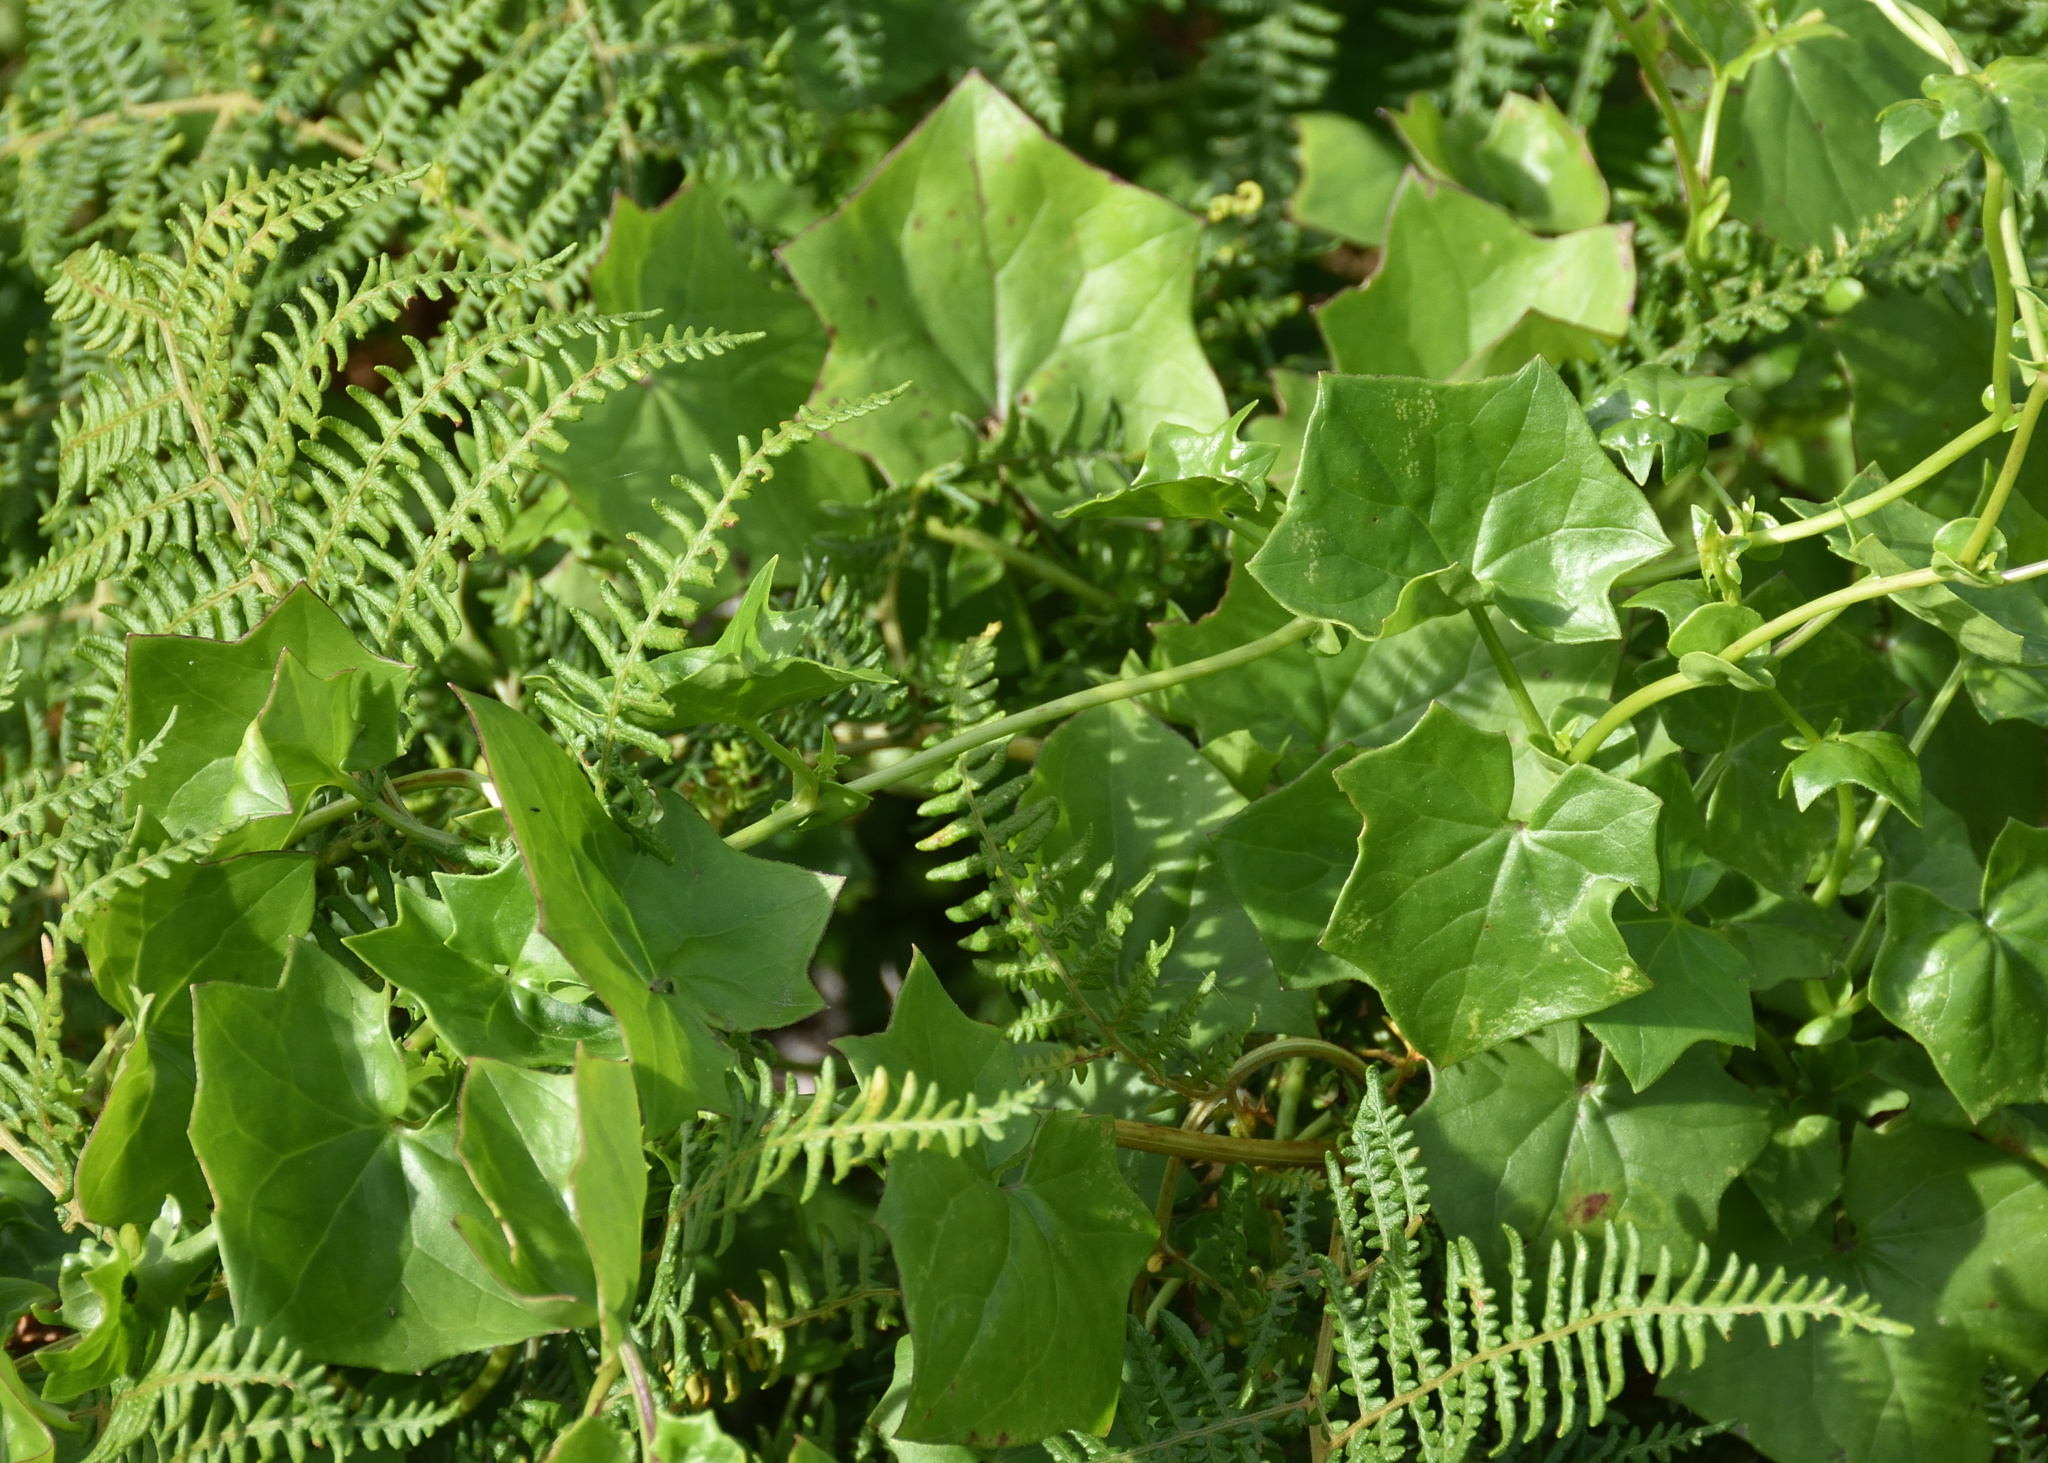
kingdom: Plantae
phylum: Tracheophyta
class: Magnoliopsida
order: Asterales
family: Asteraceae
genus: Delairea
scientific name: Delairea odorata
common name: Cape-ivy
